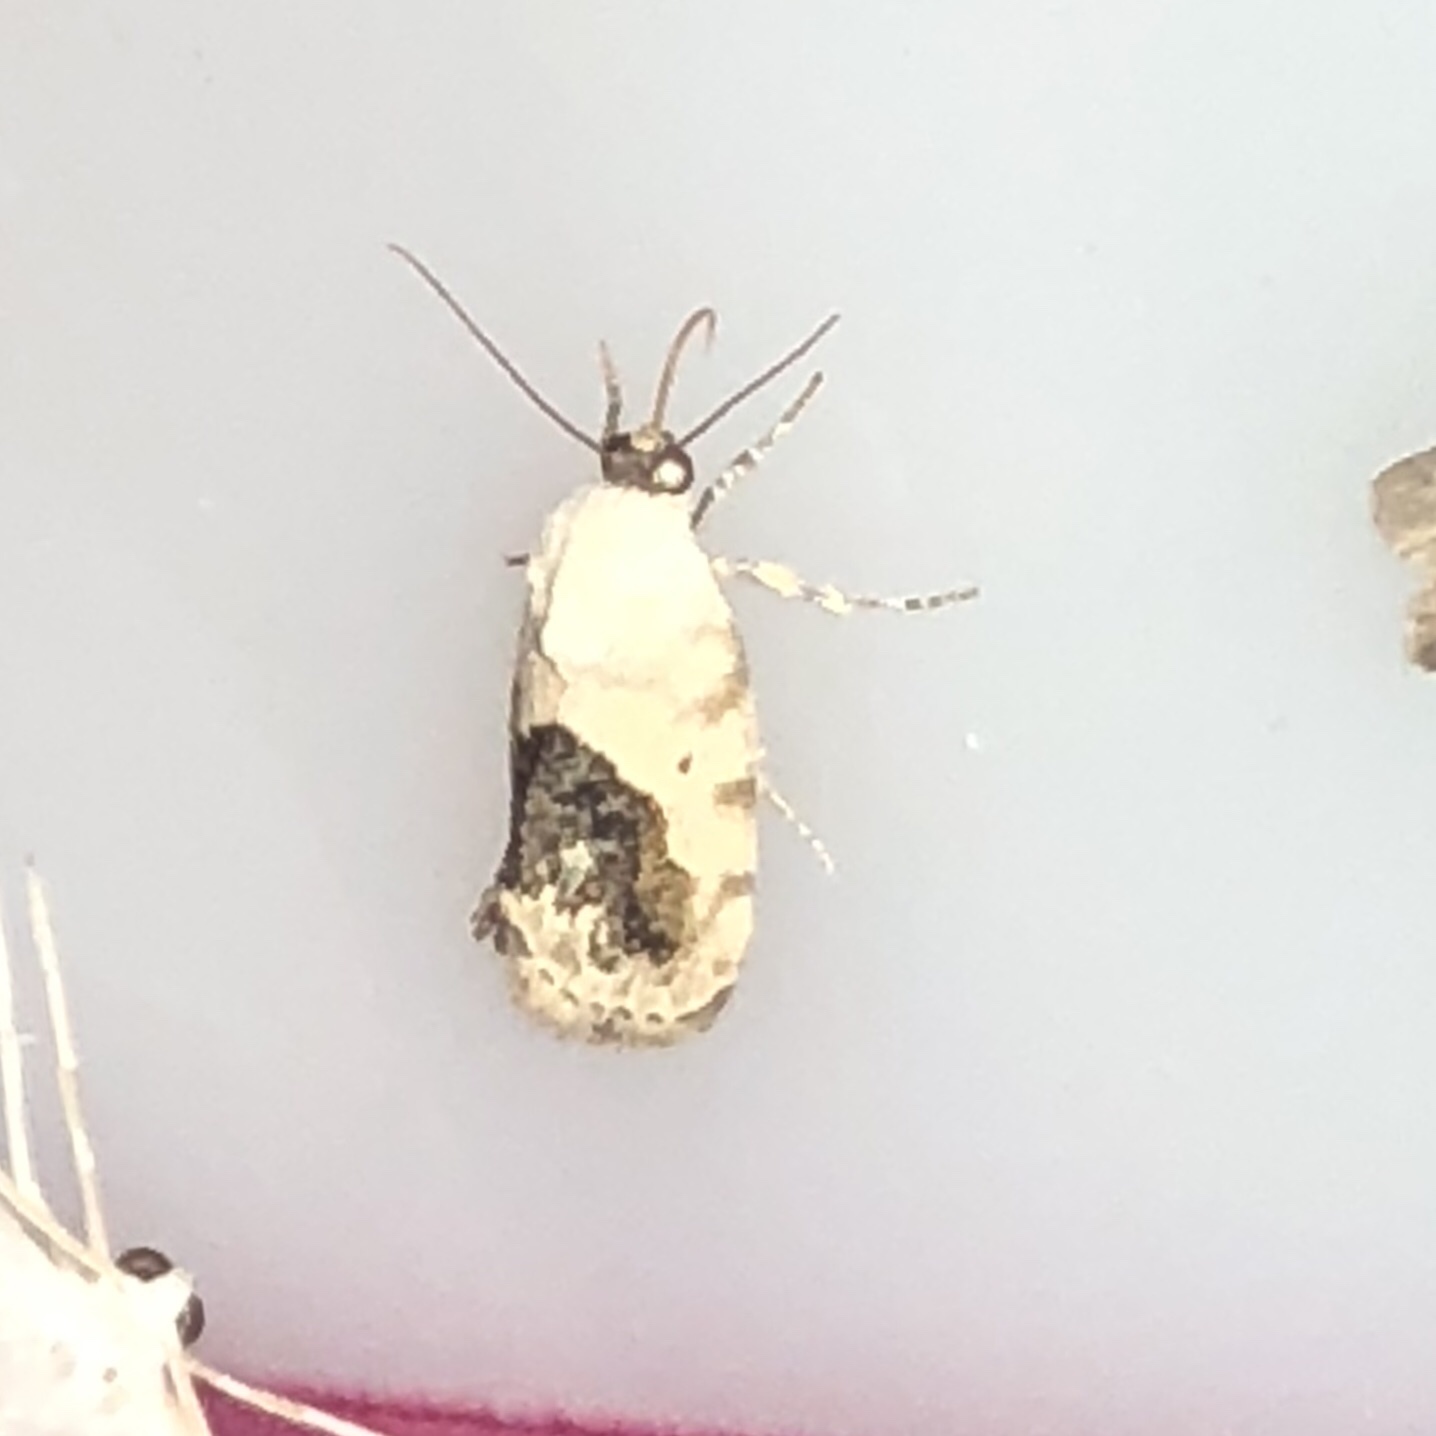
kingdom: Animalia
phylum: Arthropoda
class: Insecta
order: Lepidoptera
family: Noctuidae
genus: Acontia
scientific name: Acontia erastrioides
